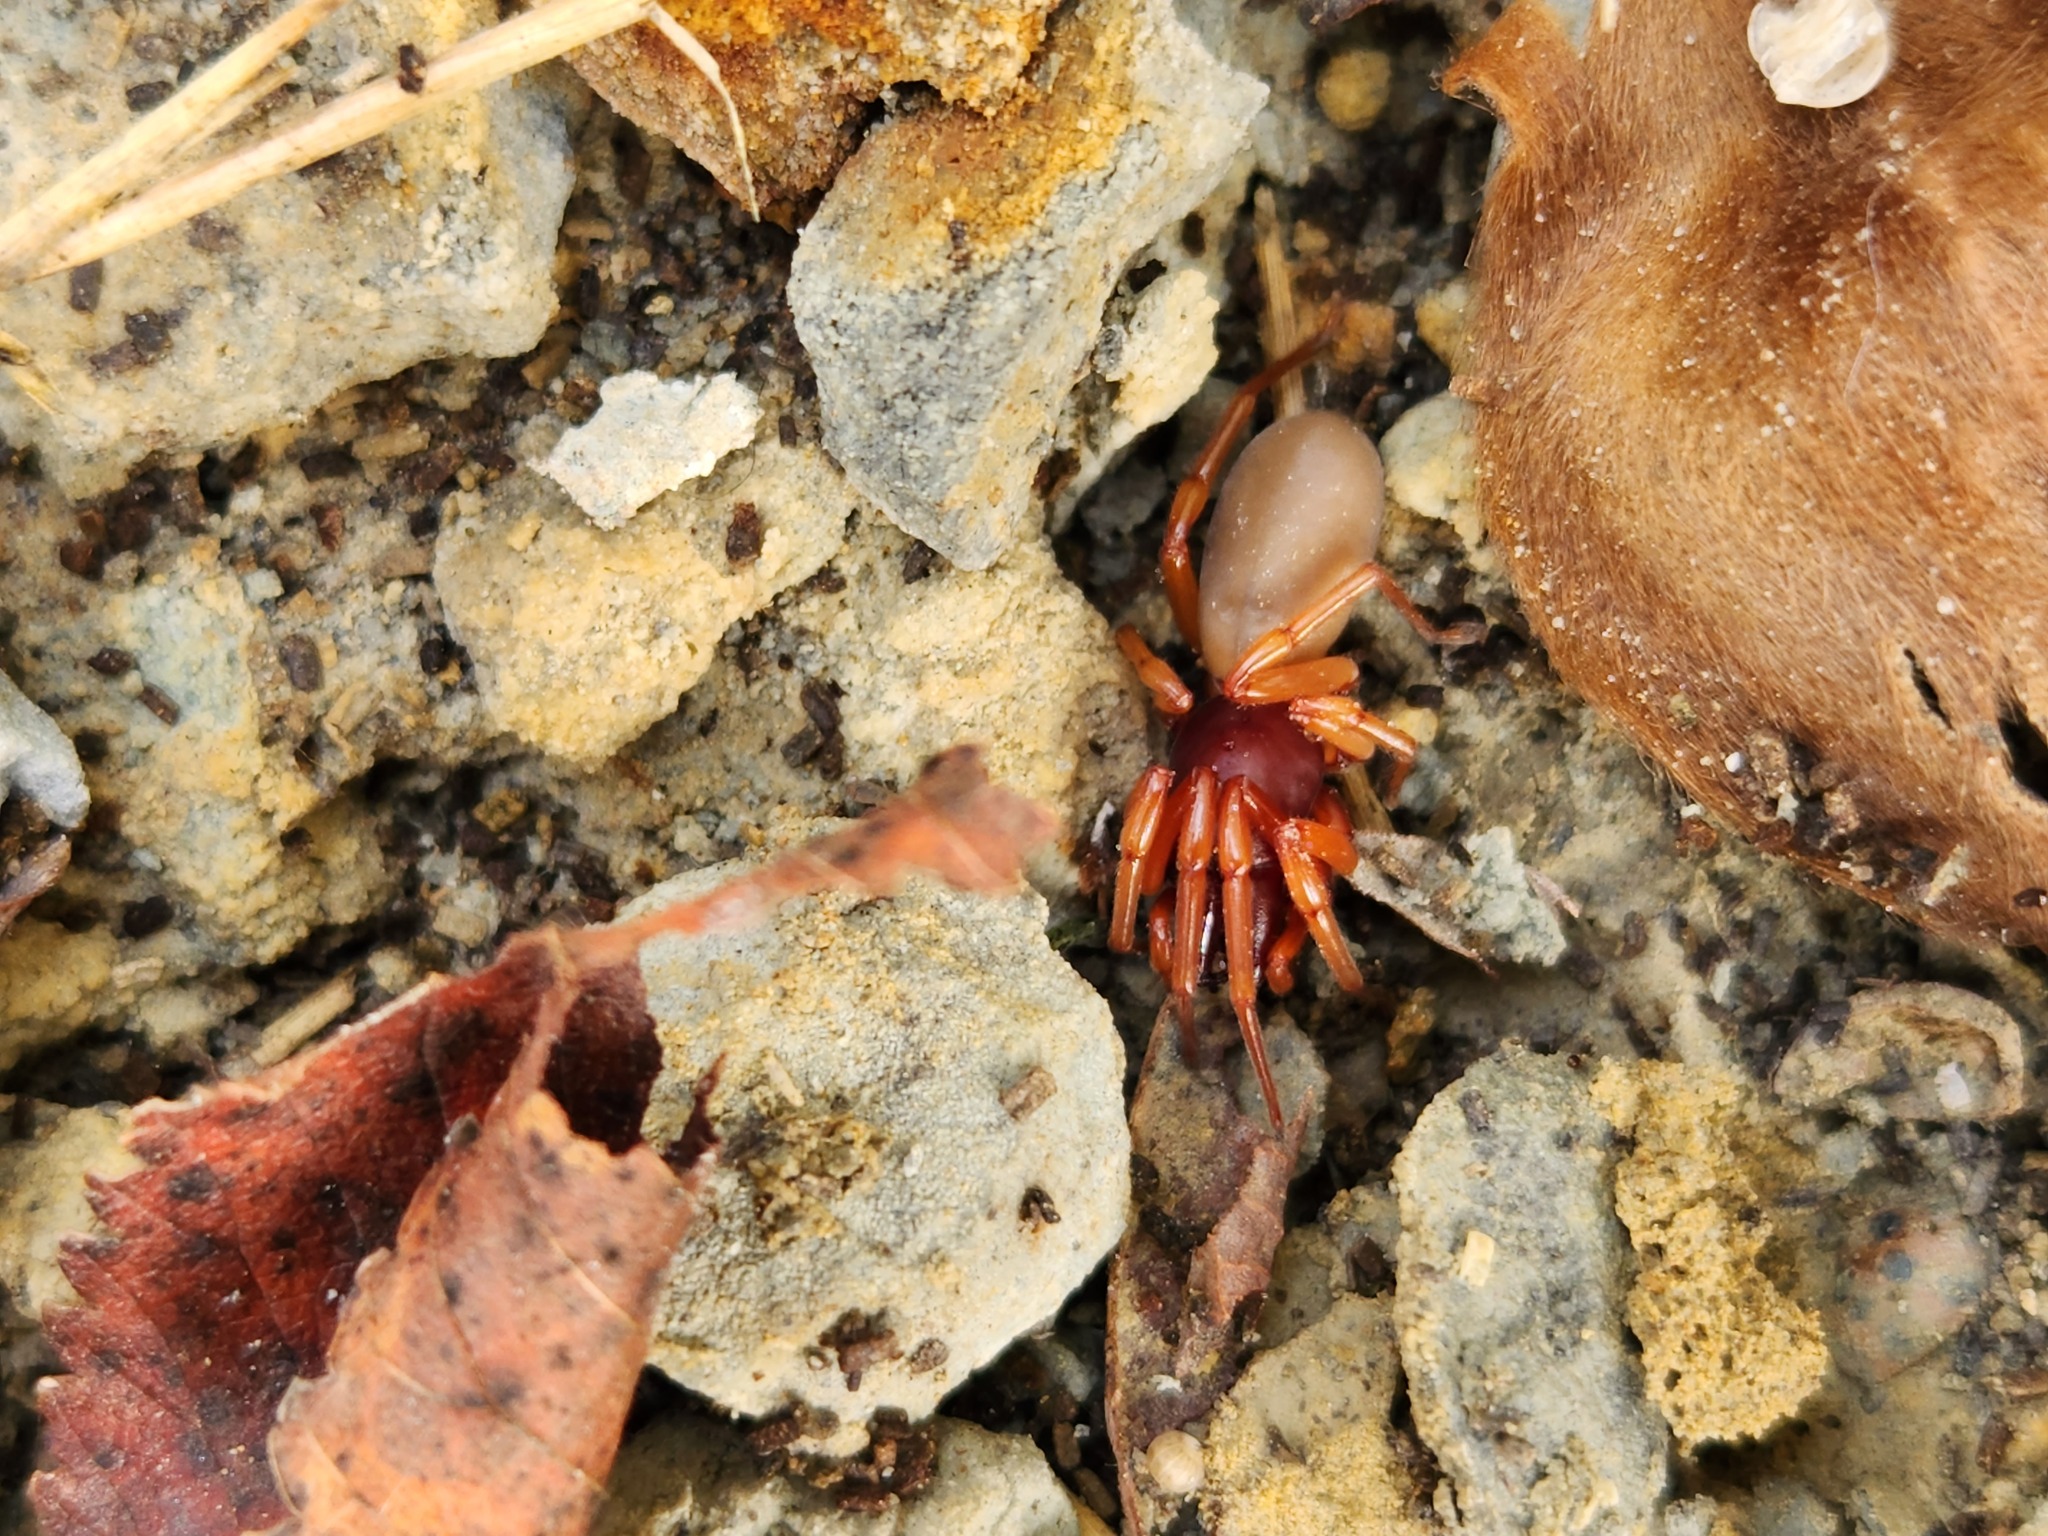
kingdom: Animalia
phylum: Arthropoda
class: Arachnida
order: Araneae
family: Dysderidae
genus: Dysdera
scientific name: Dysdera crocata
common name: Woodlouse spider
